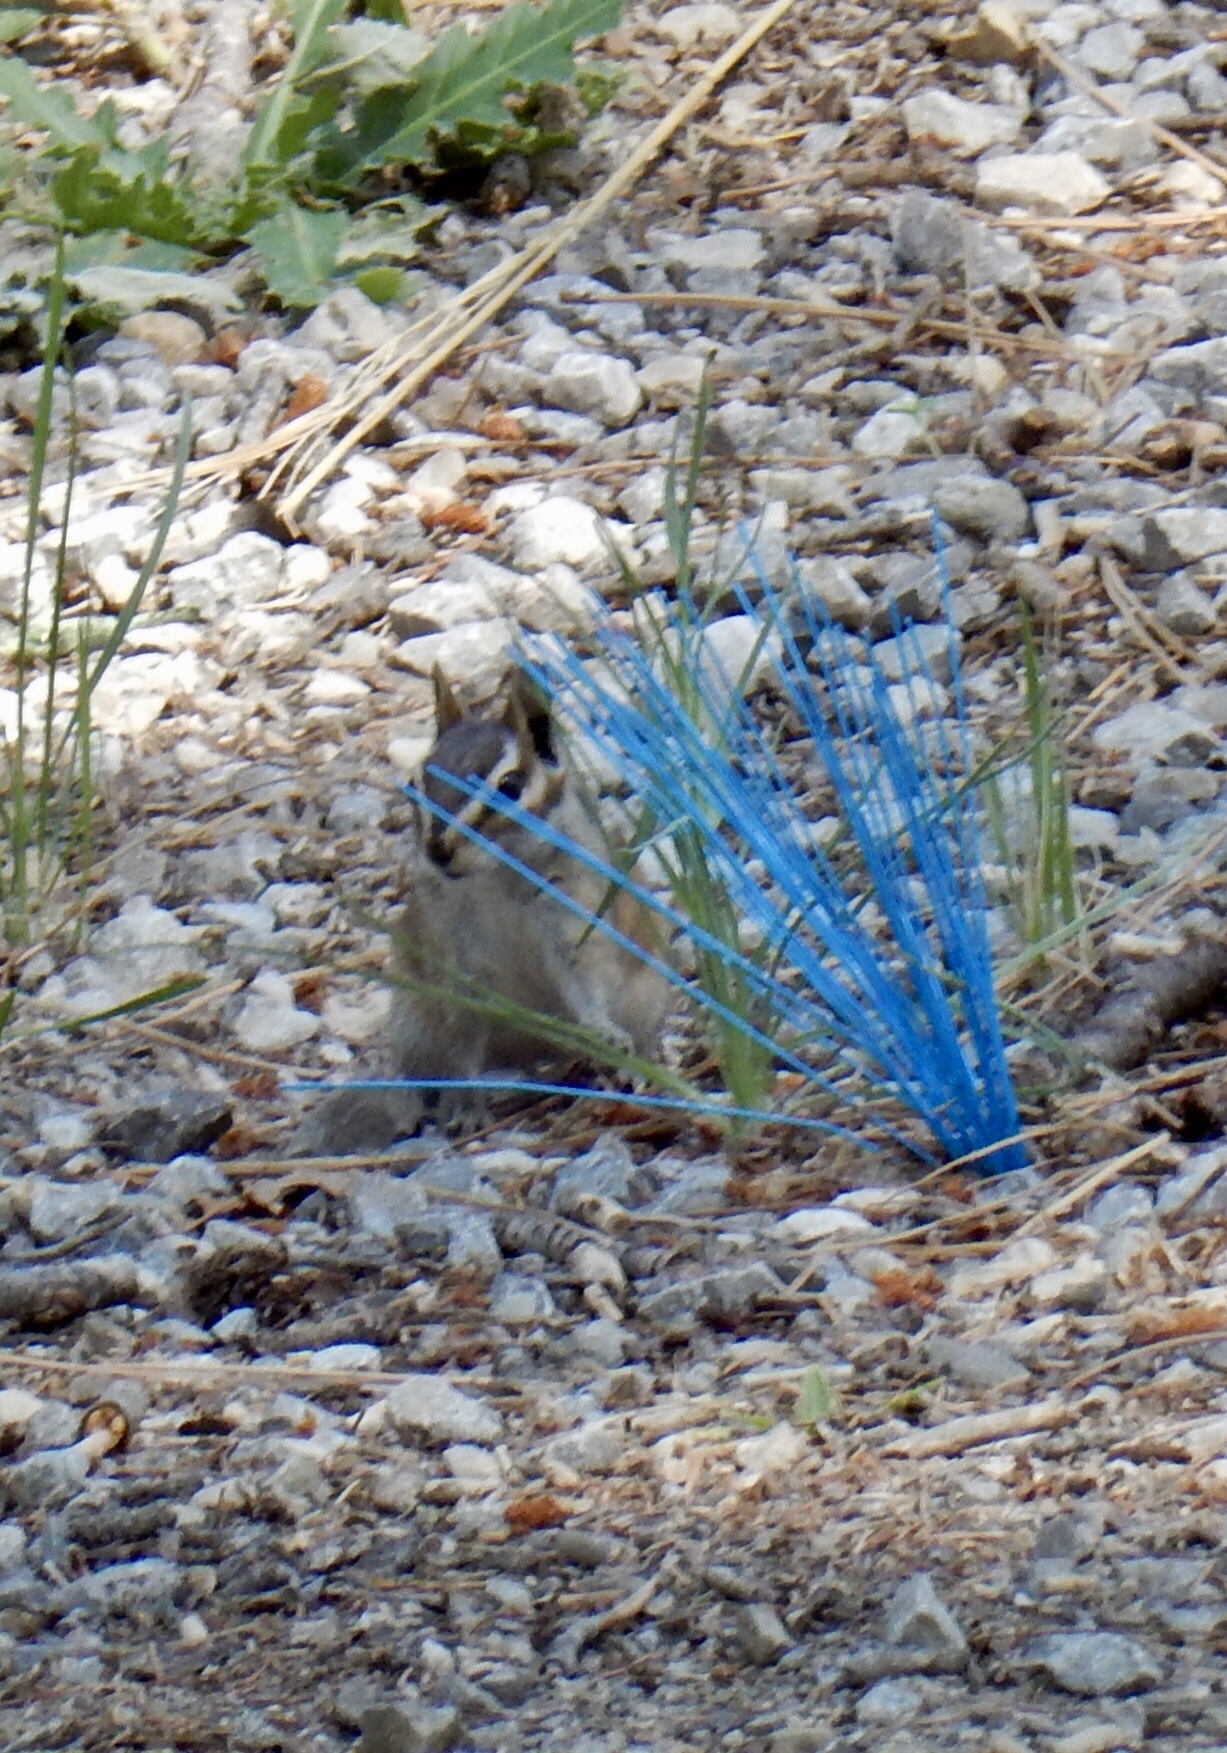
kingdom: Animalia
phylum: Chordata
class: Mammalia
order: Rodentia
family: Sciuridae
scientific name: Sciuridae
